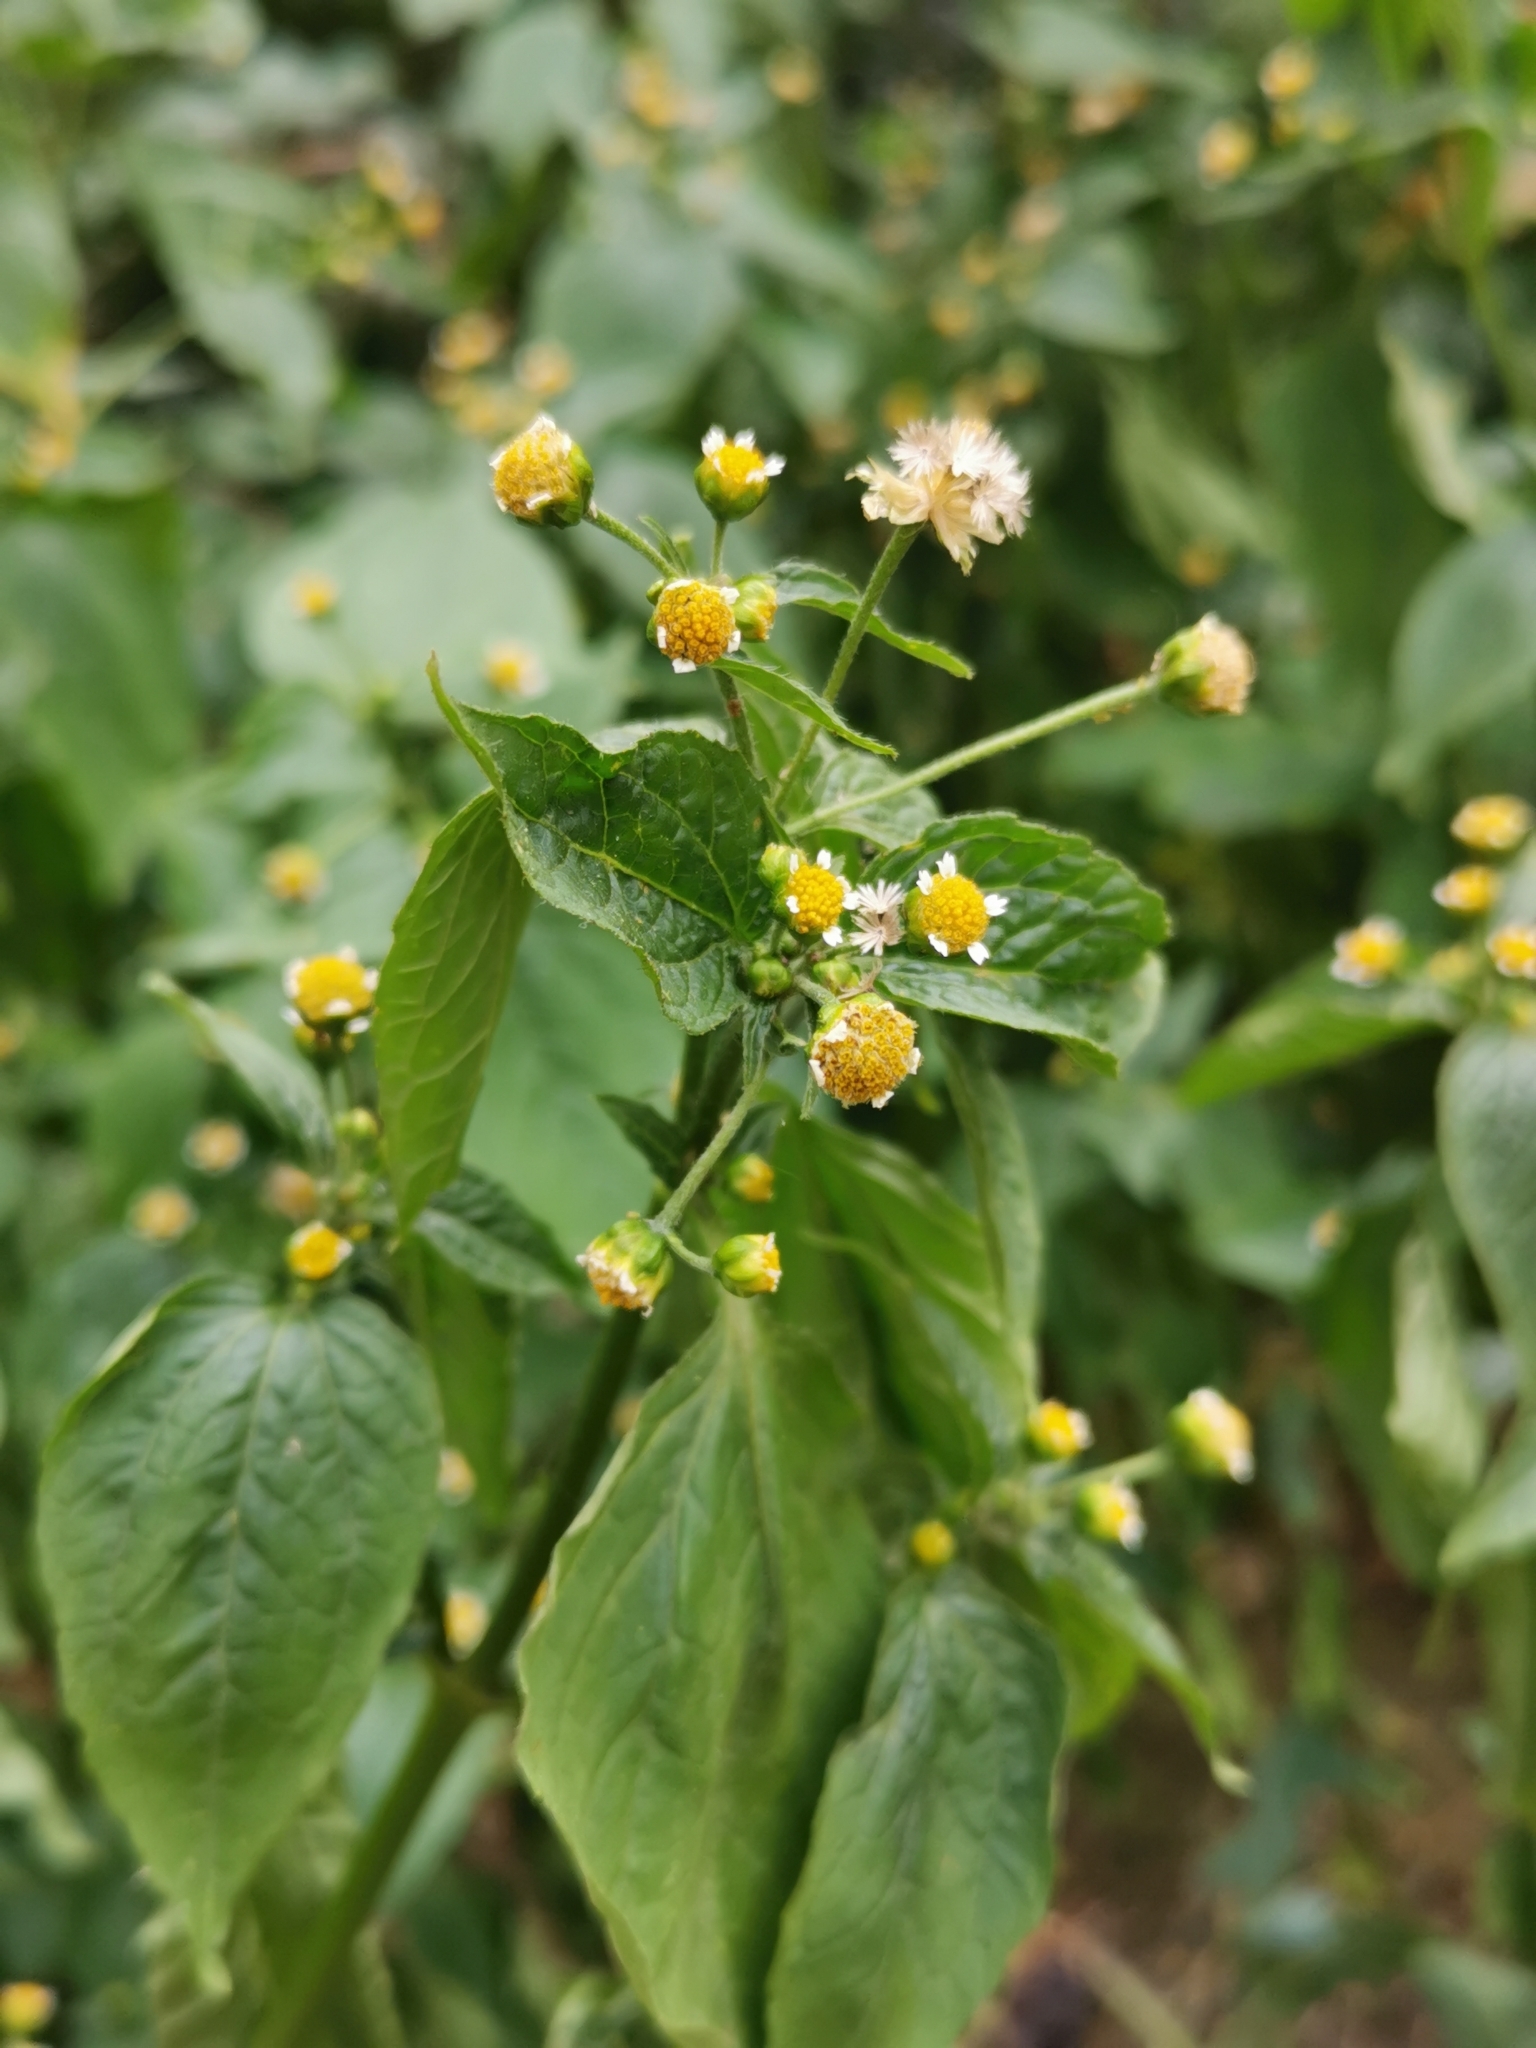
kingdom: Plantae
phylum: Tracheophyta
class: Magnoliopsida
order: Asterales
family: Asteraceae
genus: Galinsoga
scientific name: Galinsoga parviflora
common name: Gallant soldier
